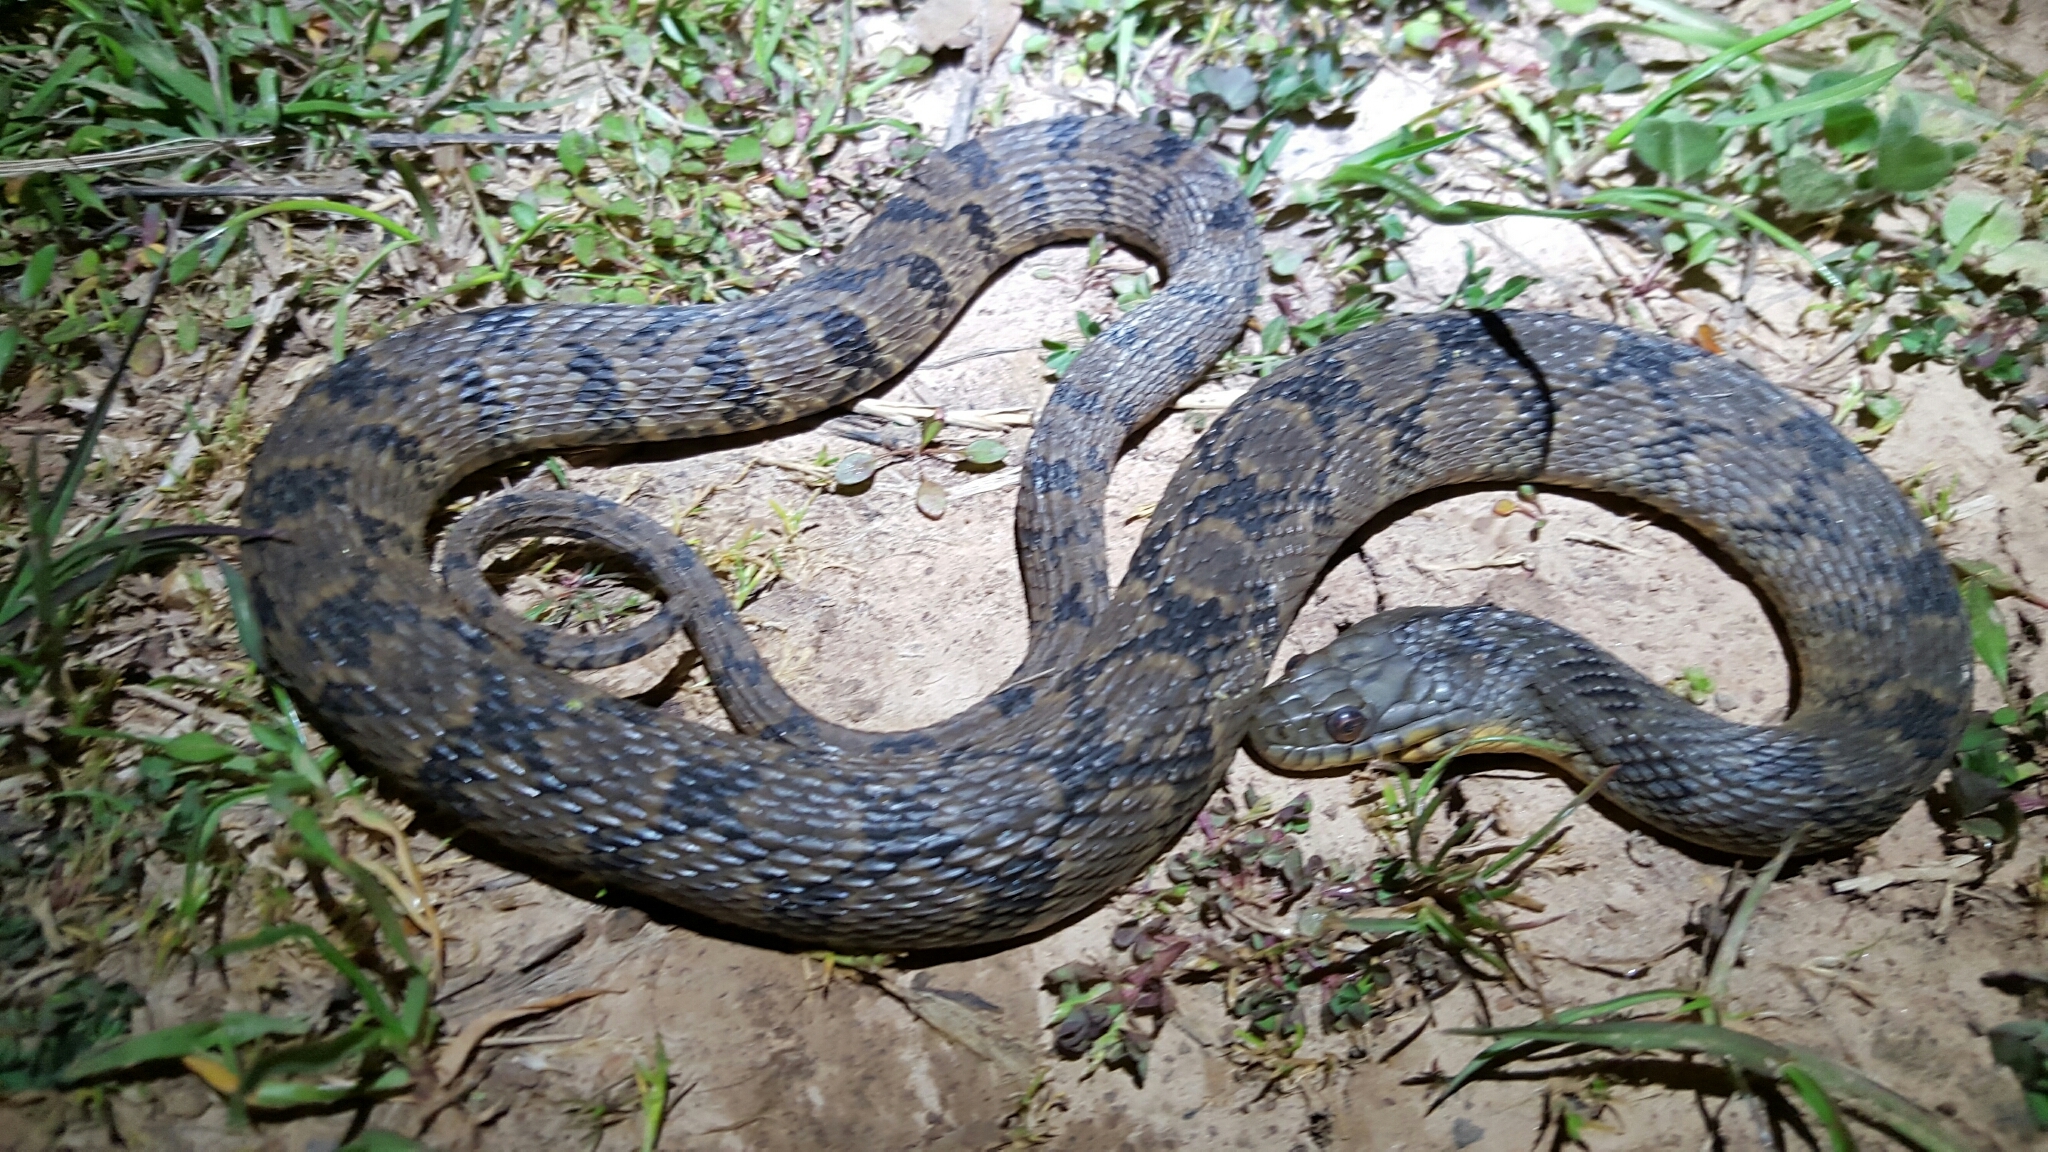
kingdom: Animalia
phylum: Chordata
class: Squamata
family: Colubridae
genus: Nerodia
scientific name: Nerodia rhombifer
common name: Diamondback water snake
